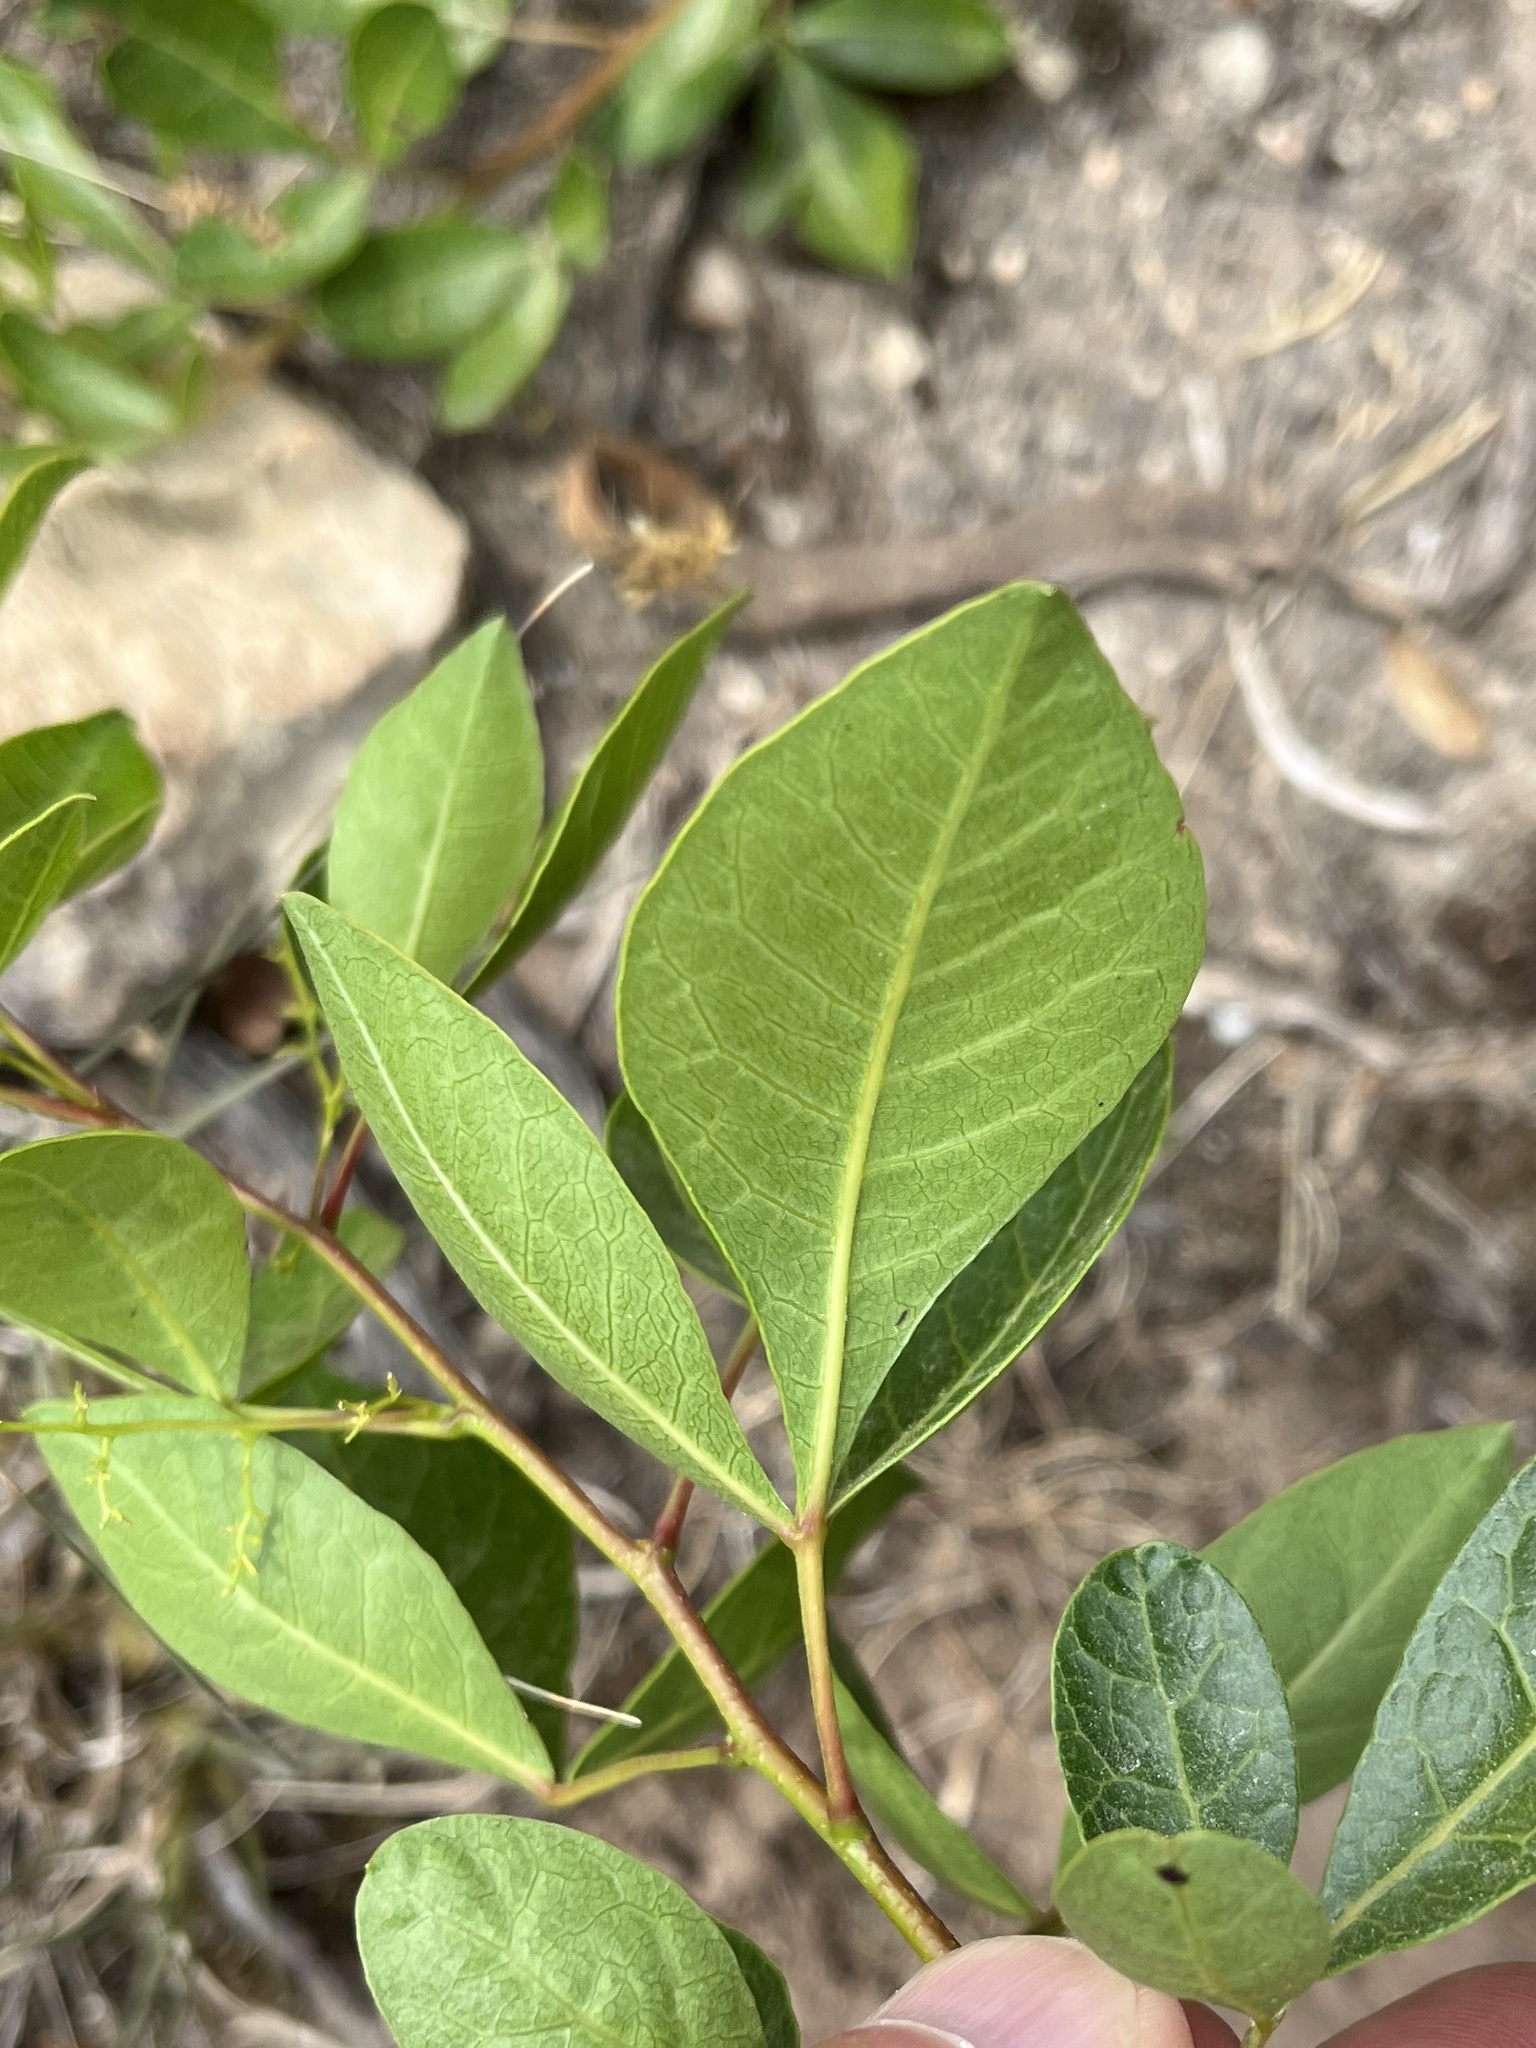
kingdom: Plantae
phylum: Tracheophyta
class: Magnoliopsida
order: Sapindales
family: Anacardiaceae
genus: Searsia
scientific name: Searsia laevigata
